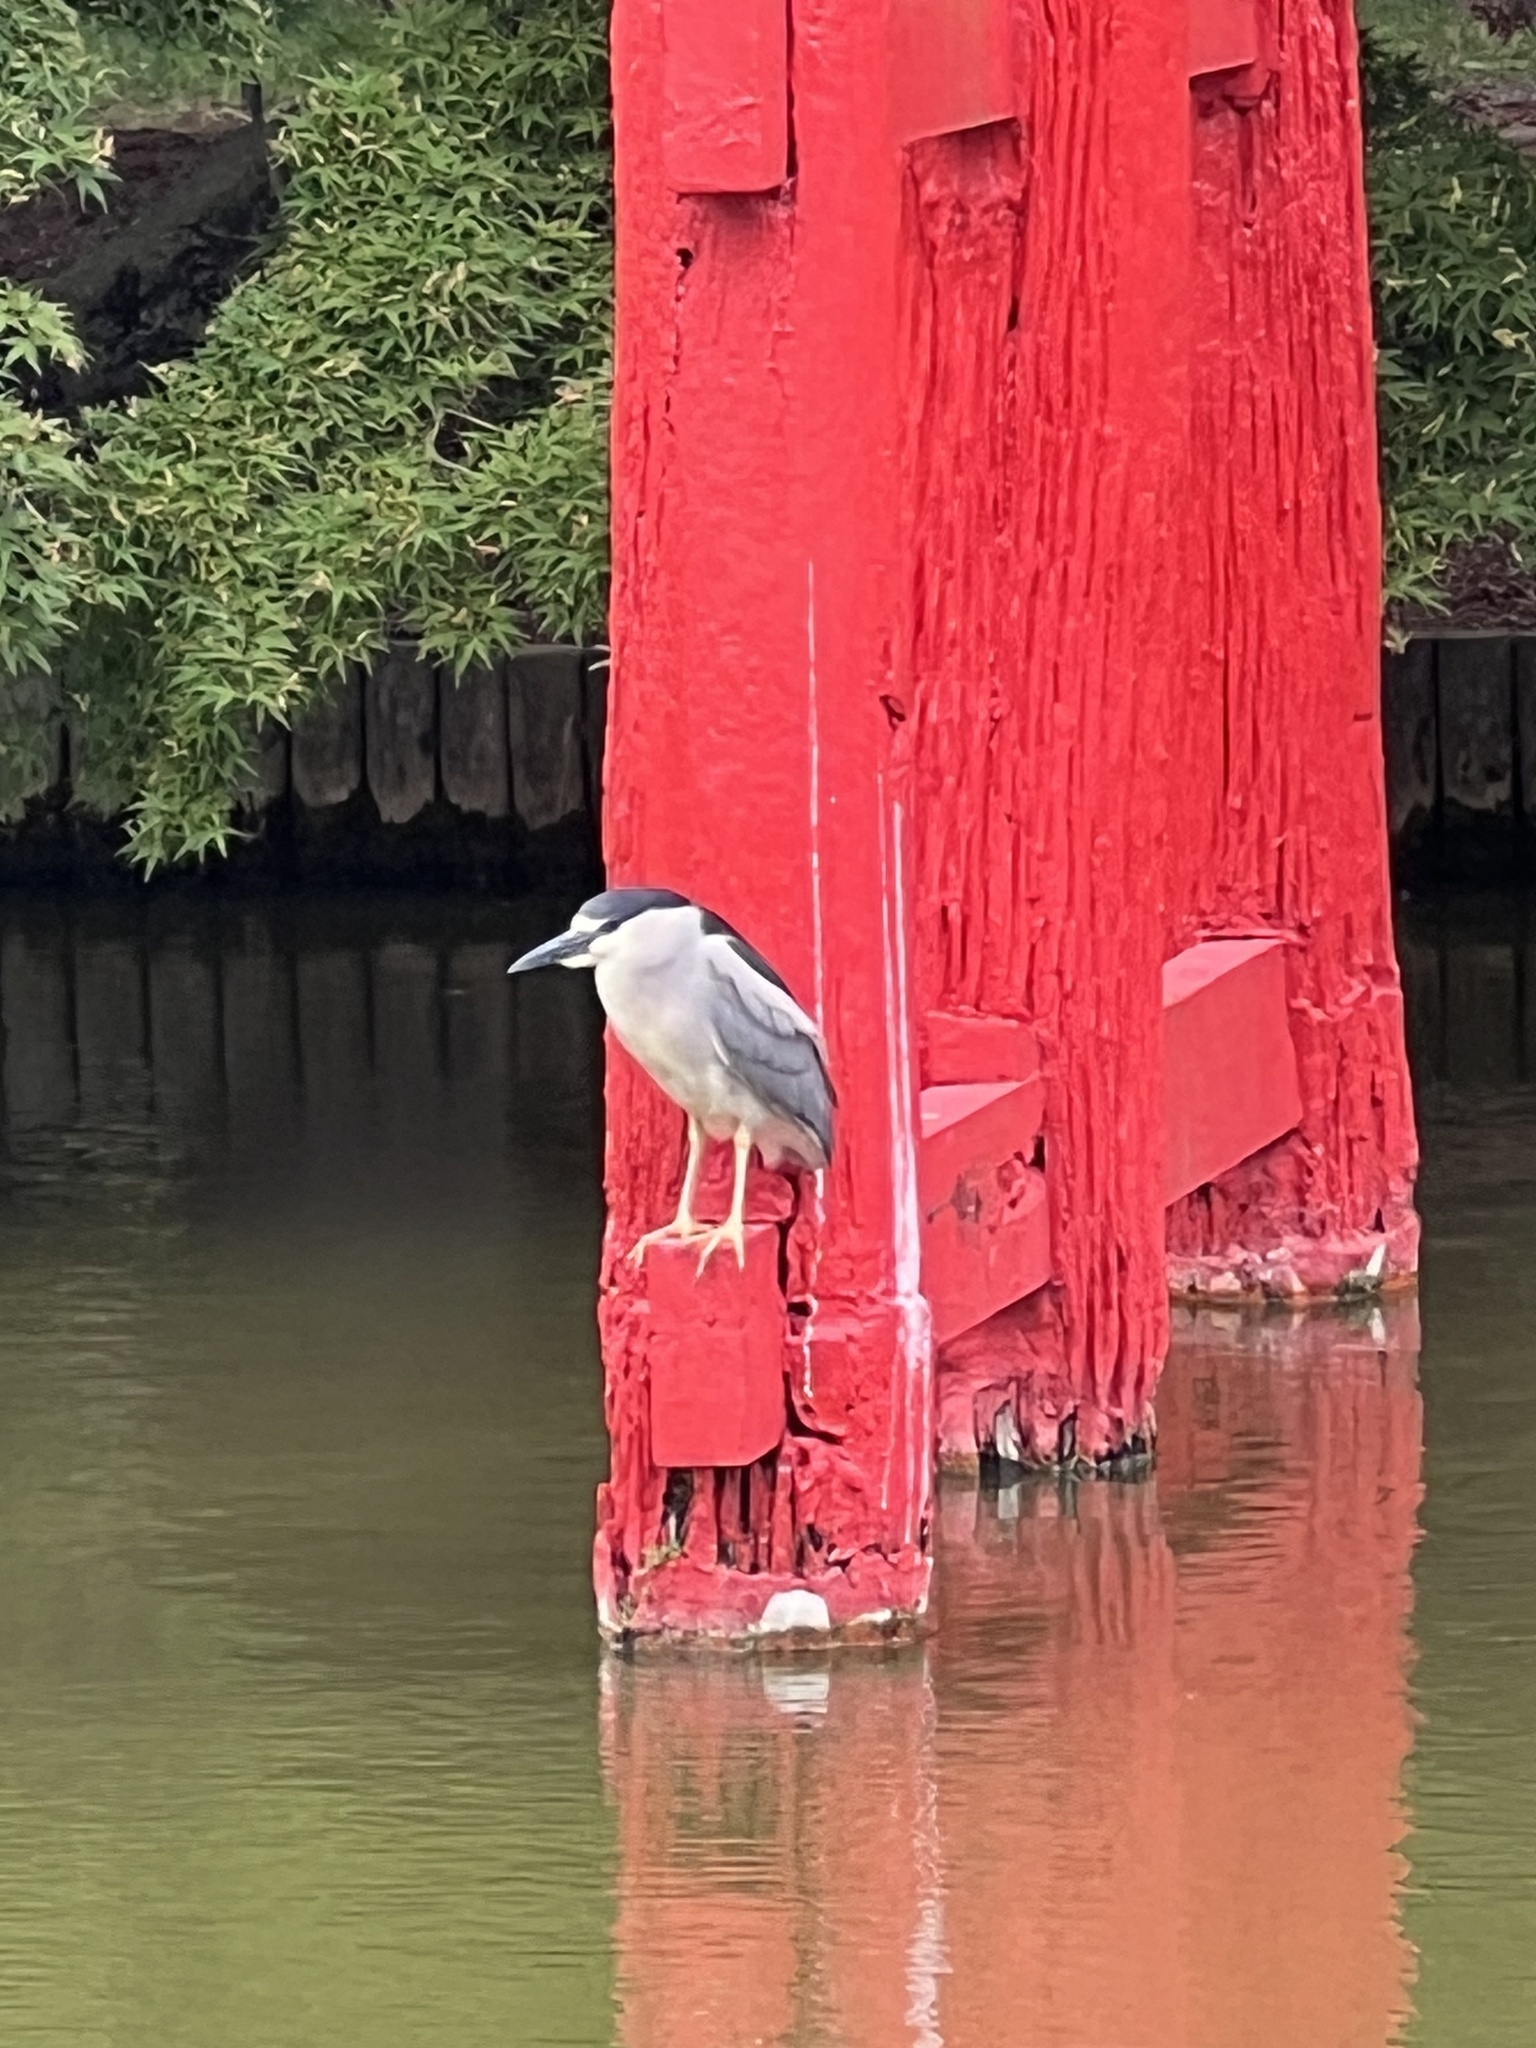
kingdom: Animalia
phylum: Chordata
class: Aves
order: Pelecaniformes
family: Ardeidae
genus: Nycticorax
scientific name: Nycticorax nycticorax
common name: Black-crowned night heron
